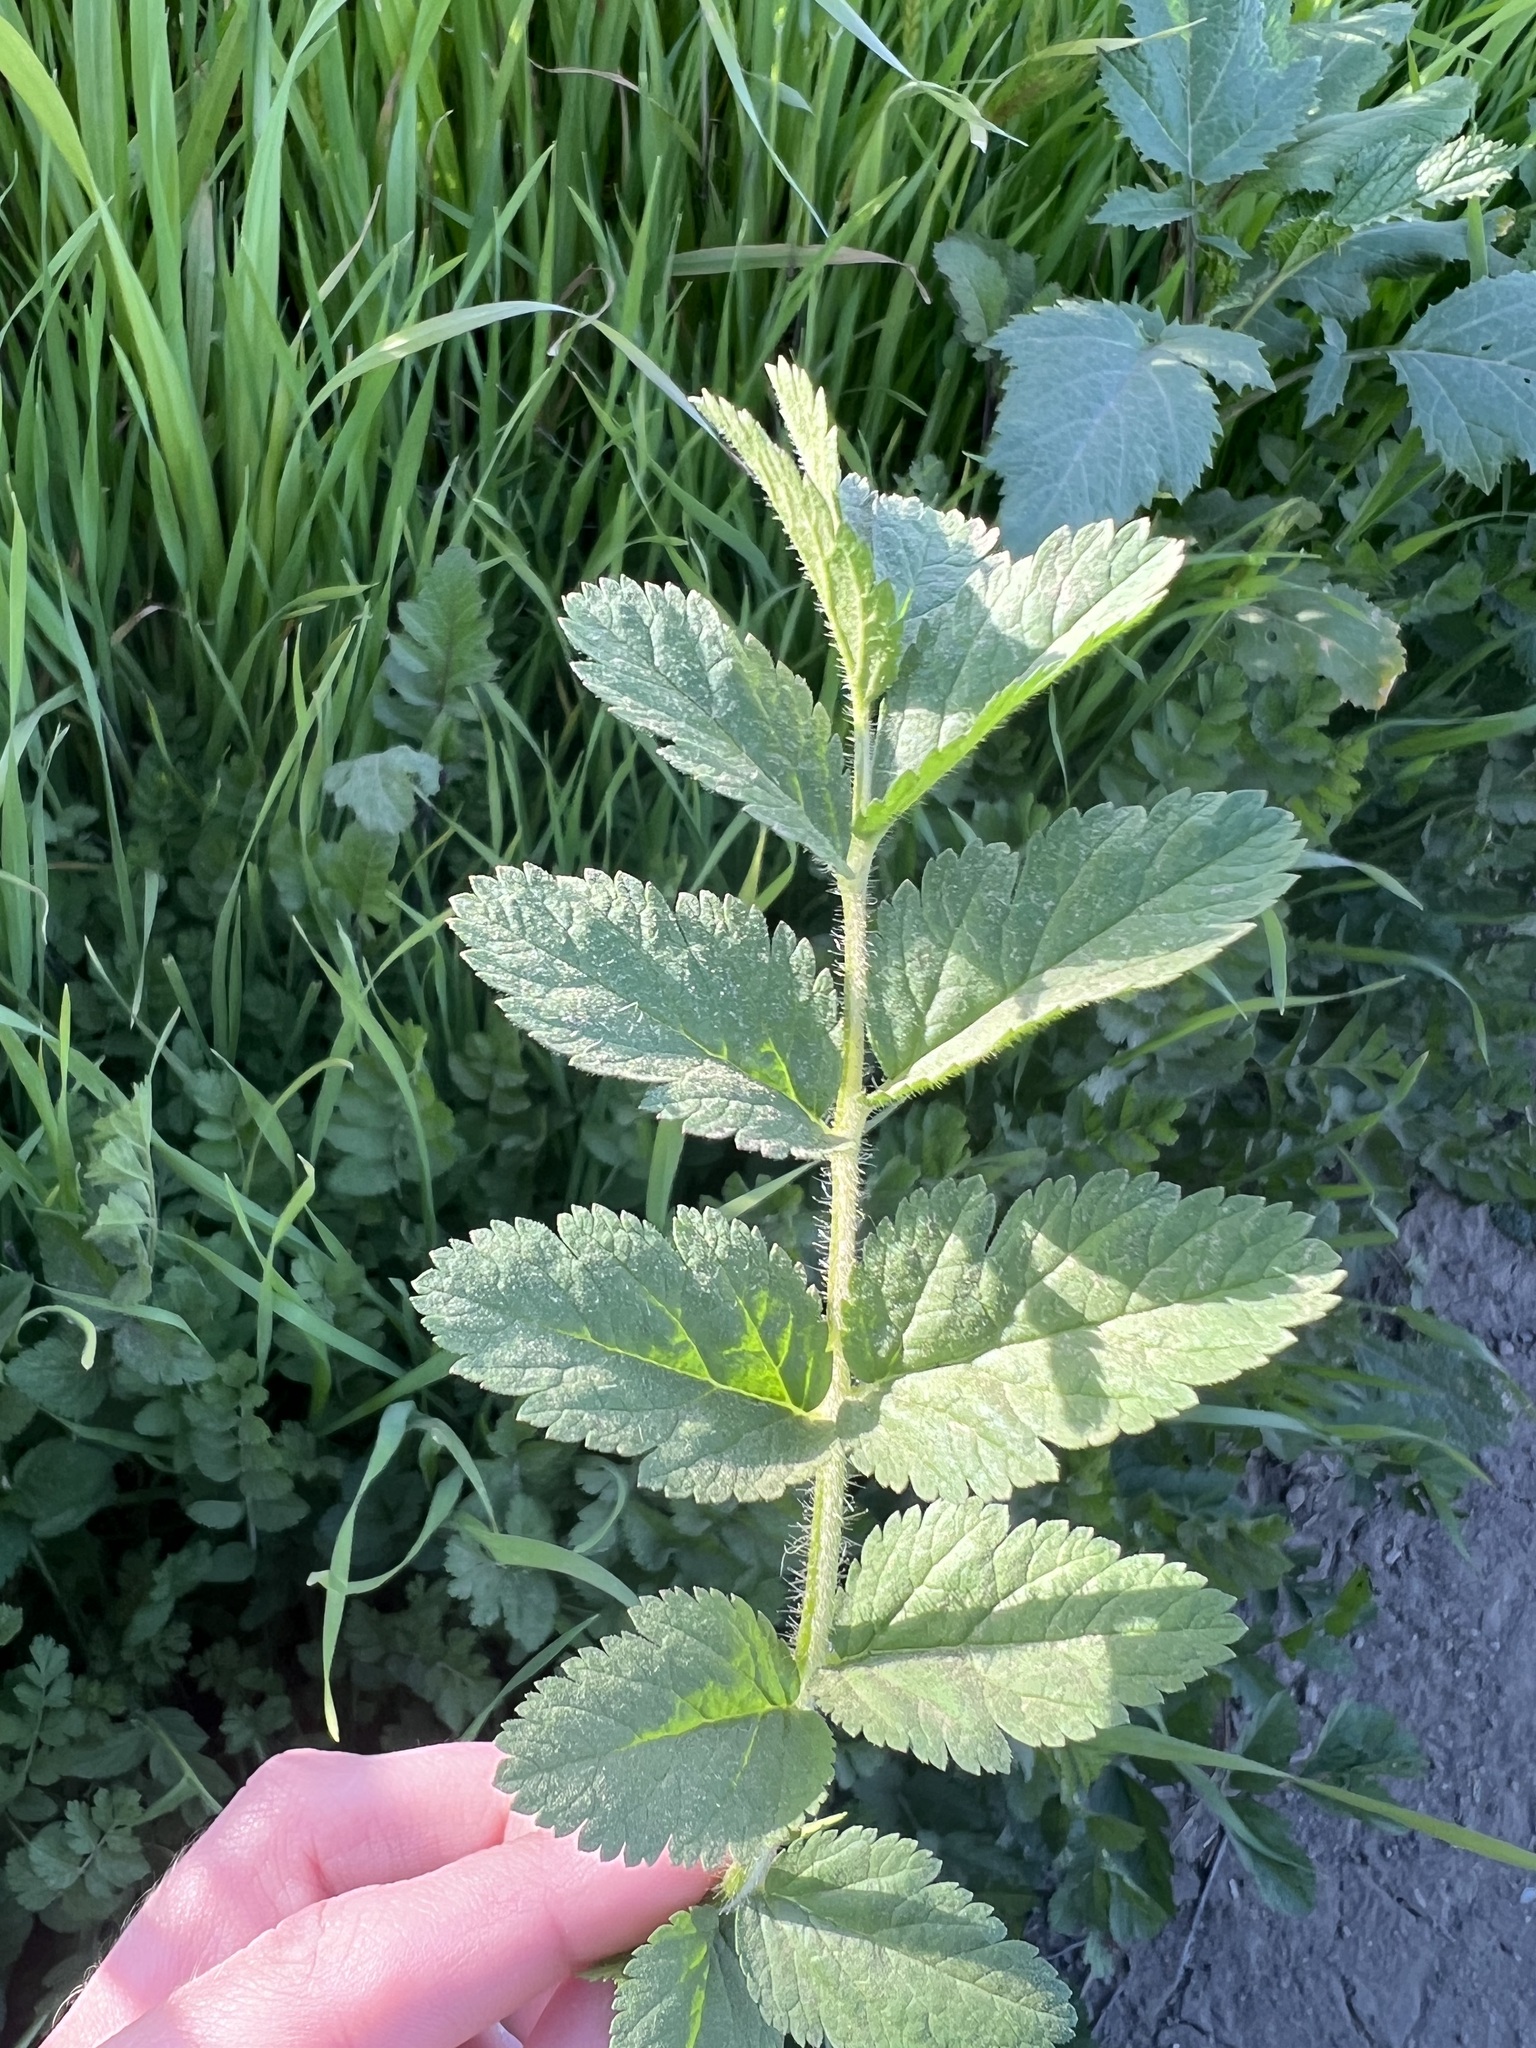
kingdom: Plantae
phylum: Tracheophyta
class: Magnoliopsida
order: Geraniales
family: Geraniaceae
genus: Erodium
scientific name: Erodium moschatum
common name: Musk stork's-bill
